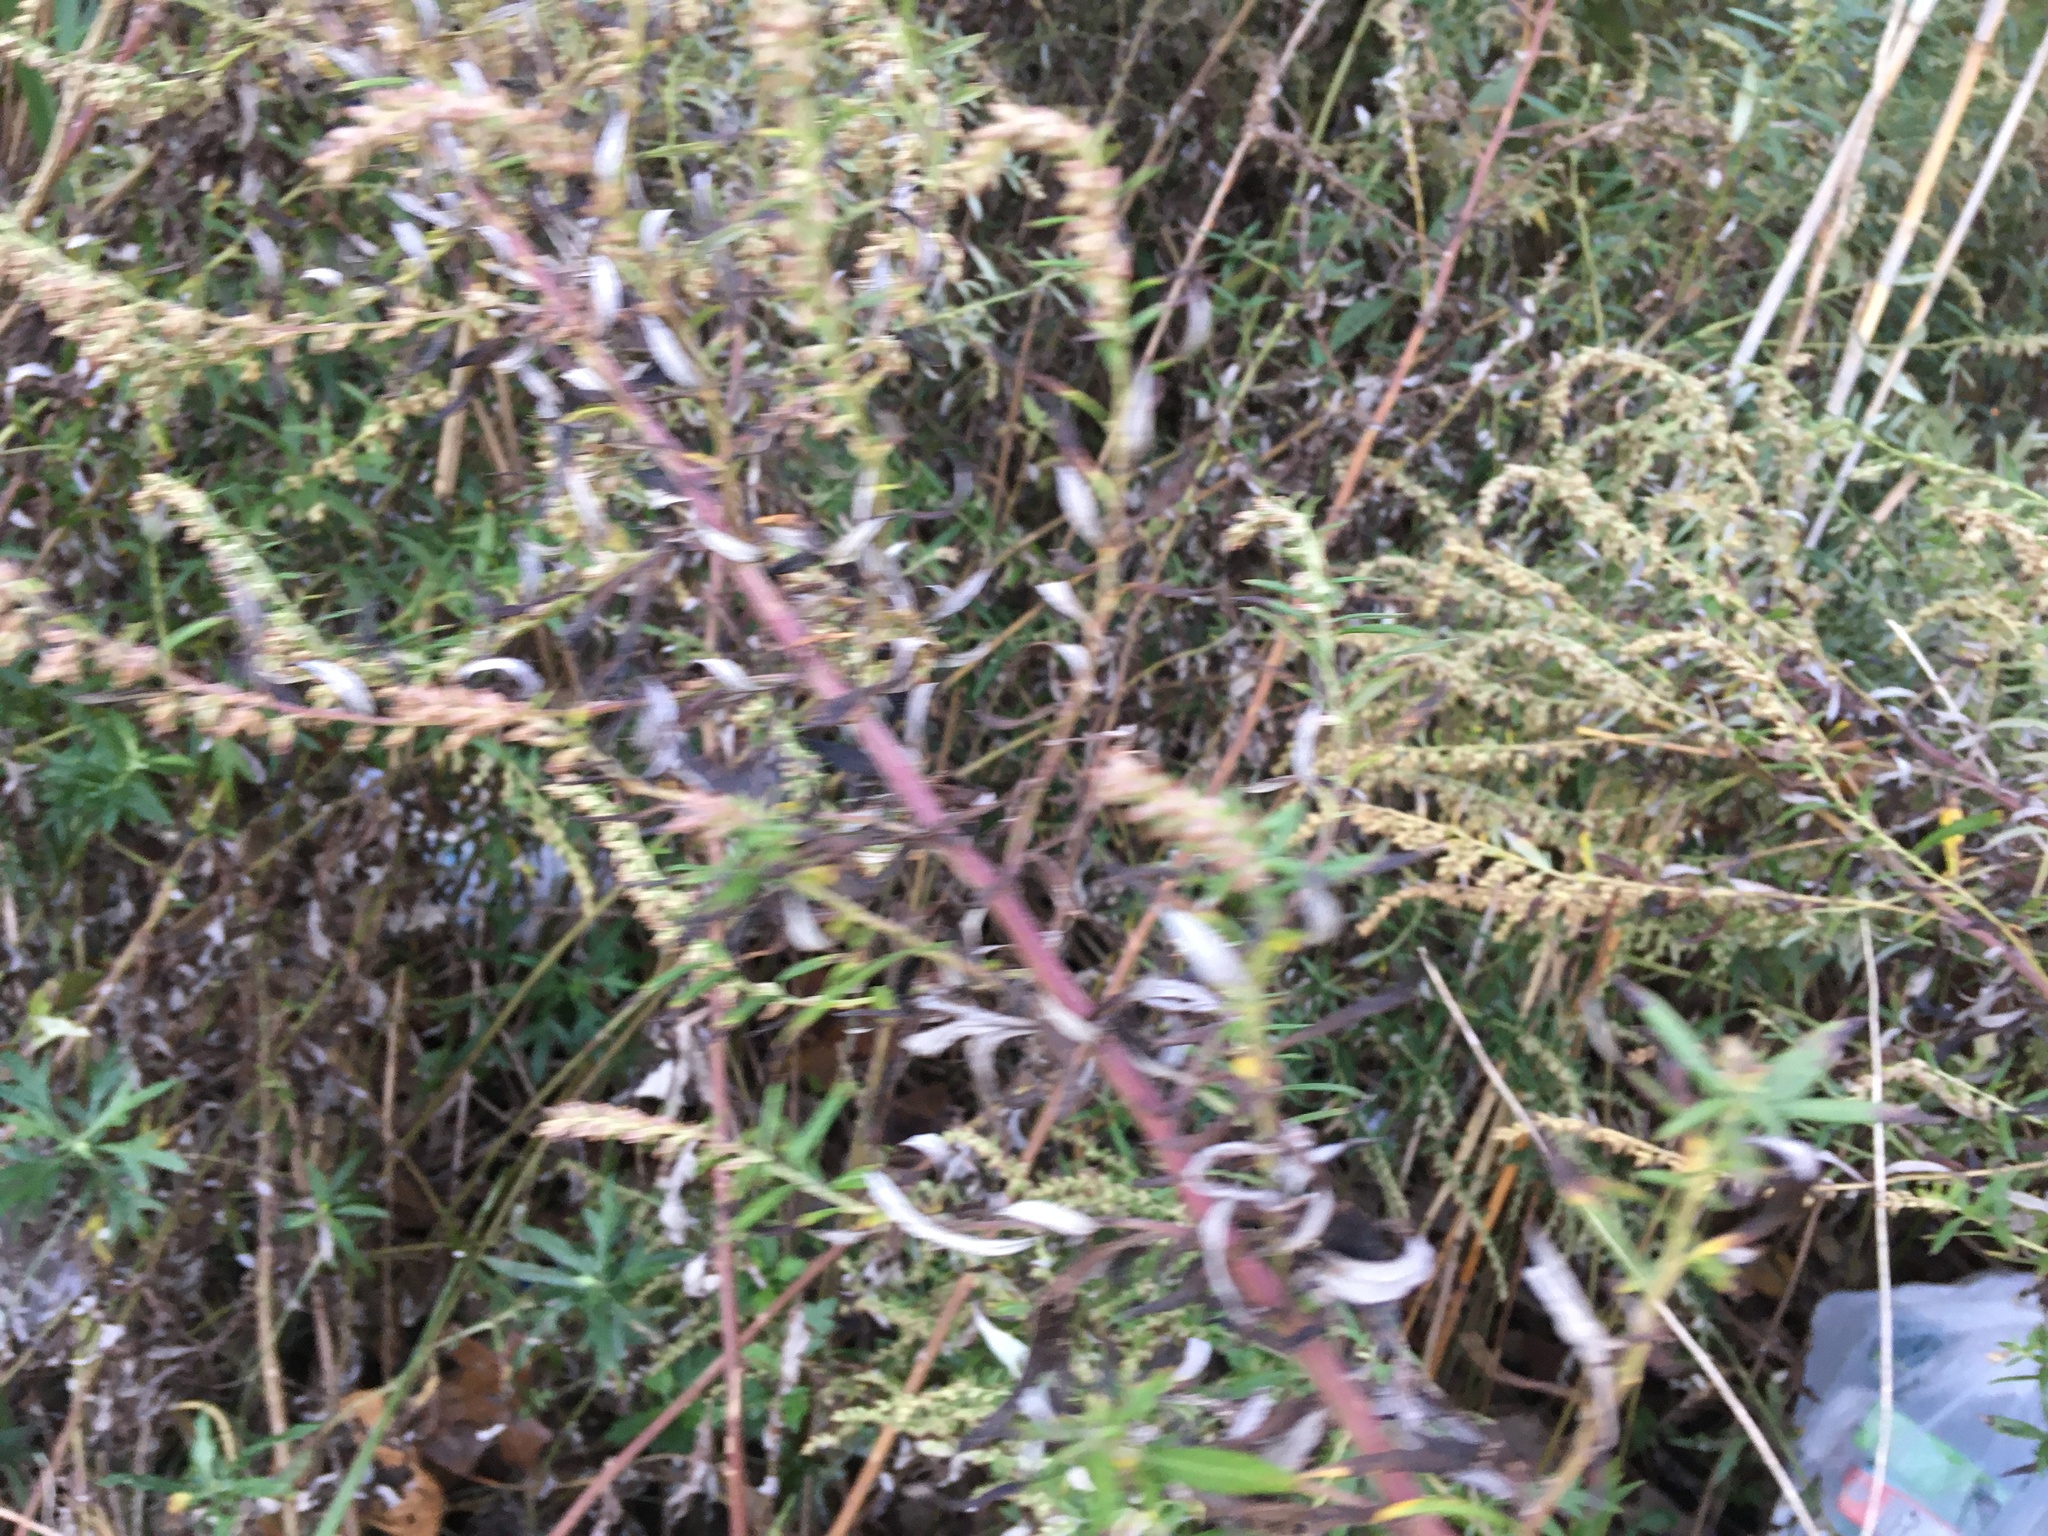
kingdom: Plantae
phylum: Tracheophyta
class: Magnoliopsida
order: Asterales
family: Asteraceae
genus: Artemisia
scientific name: Artemisia vulgaris
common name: Mugwort
